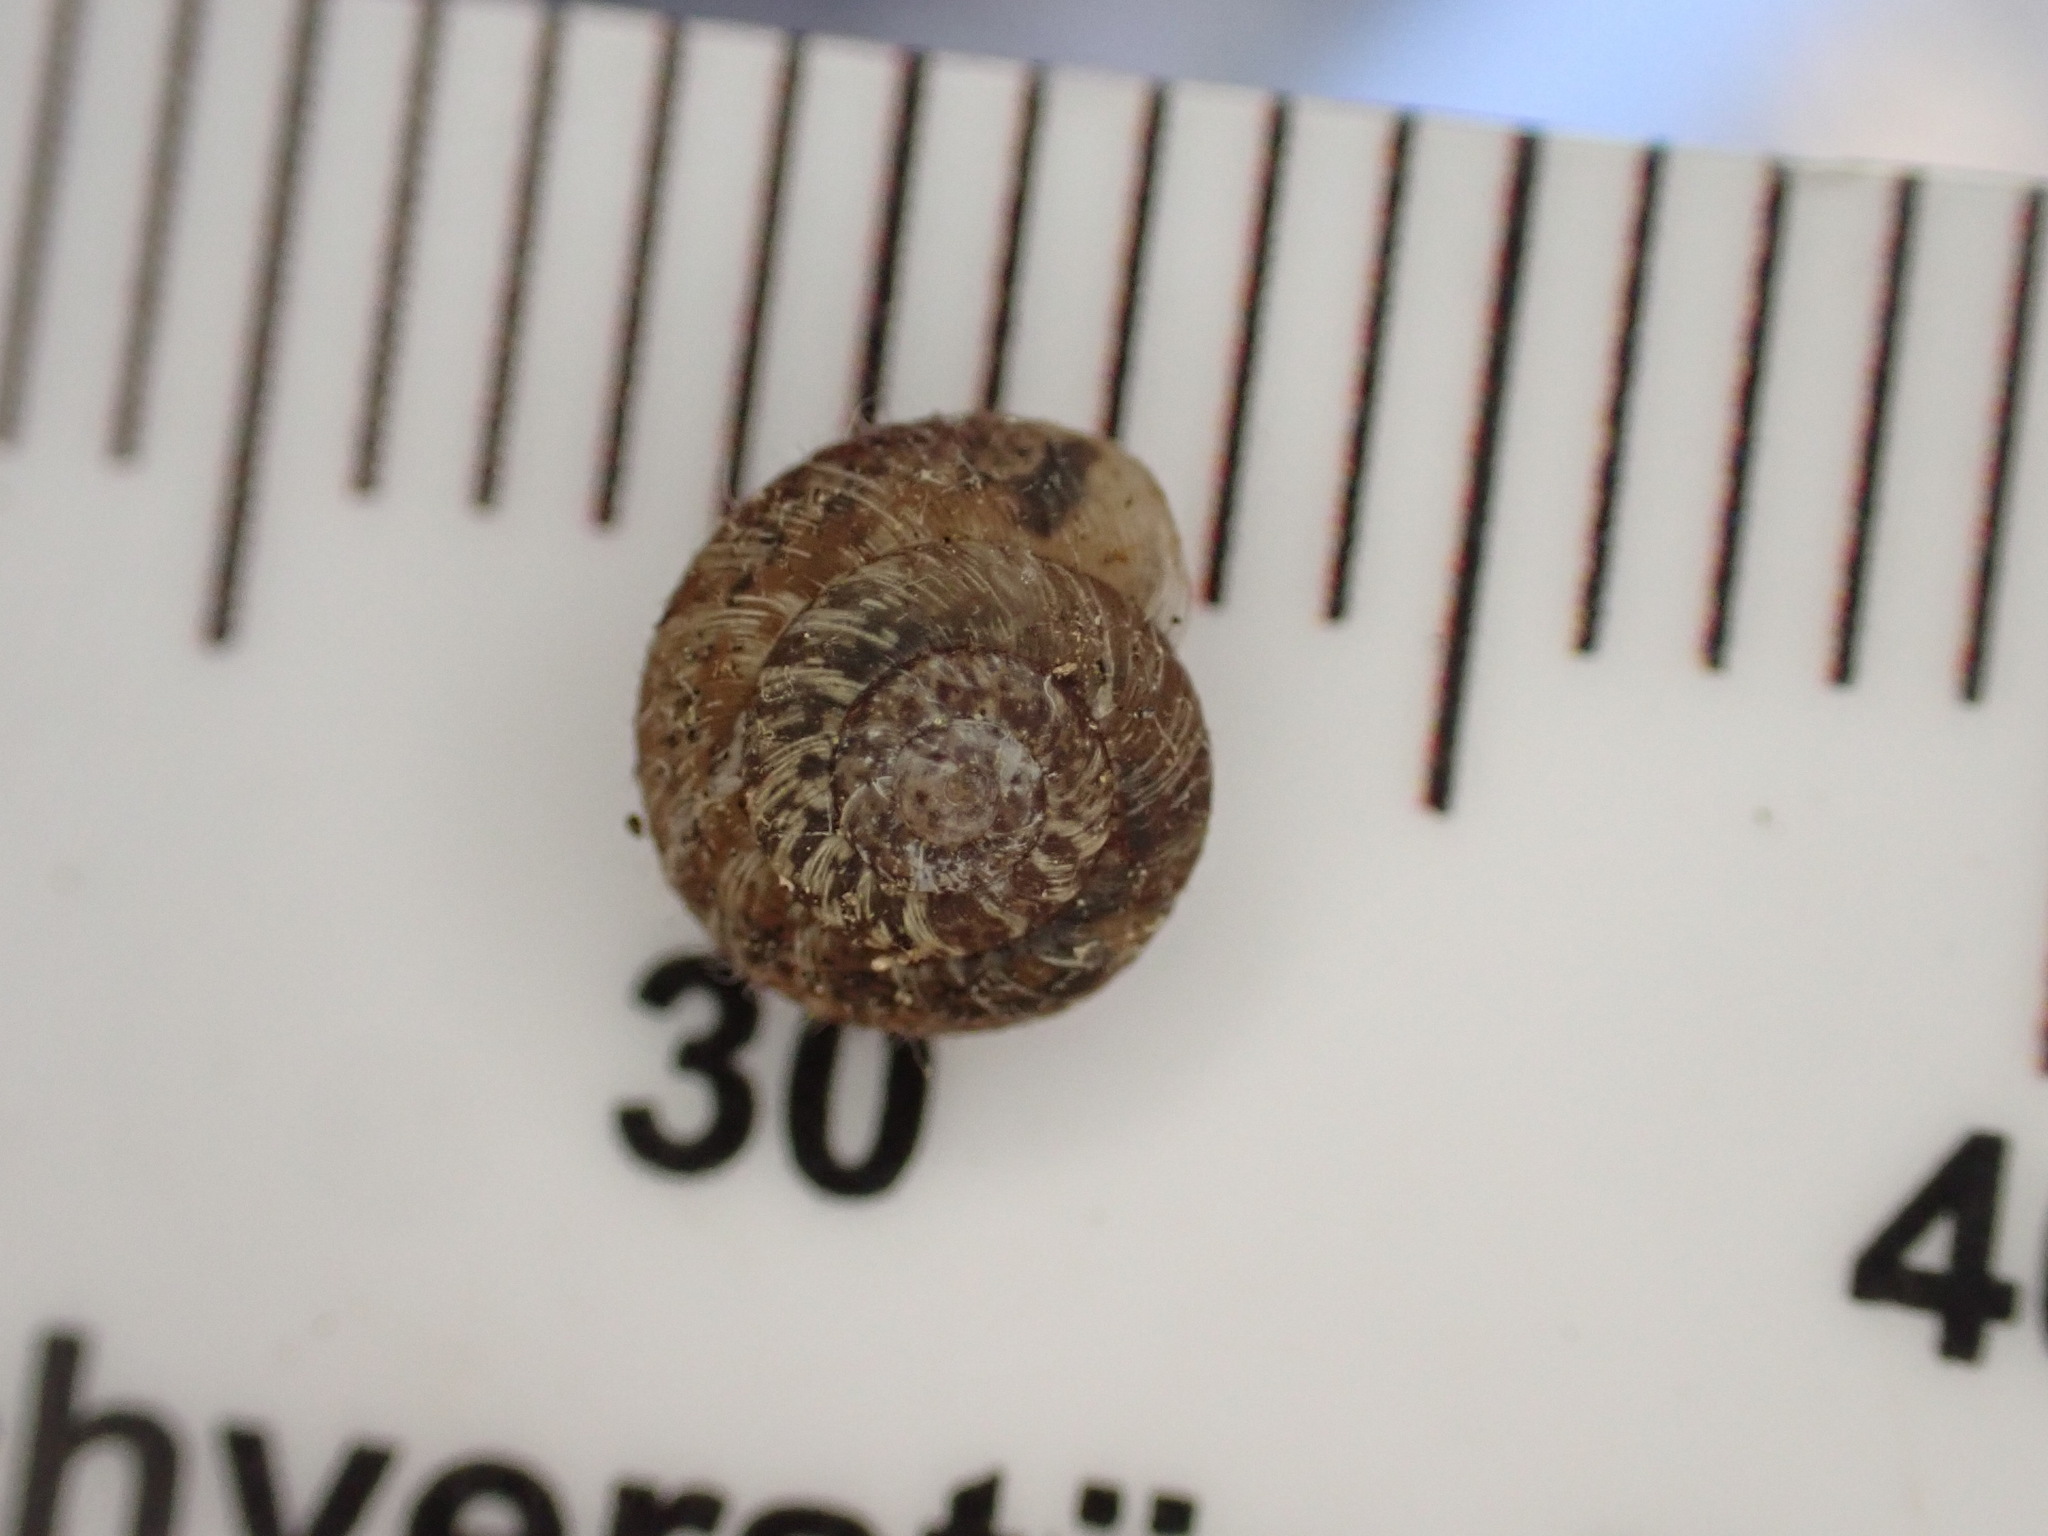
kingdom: Animalia
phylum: Mollusca
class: Gastropoda
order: Stylommatophora
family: Geomitridae
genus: Xerotricha
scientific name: Xerotricha conspurcata
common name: Snail
